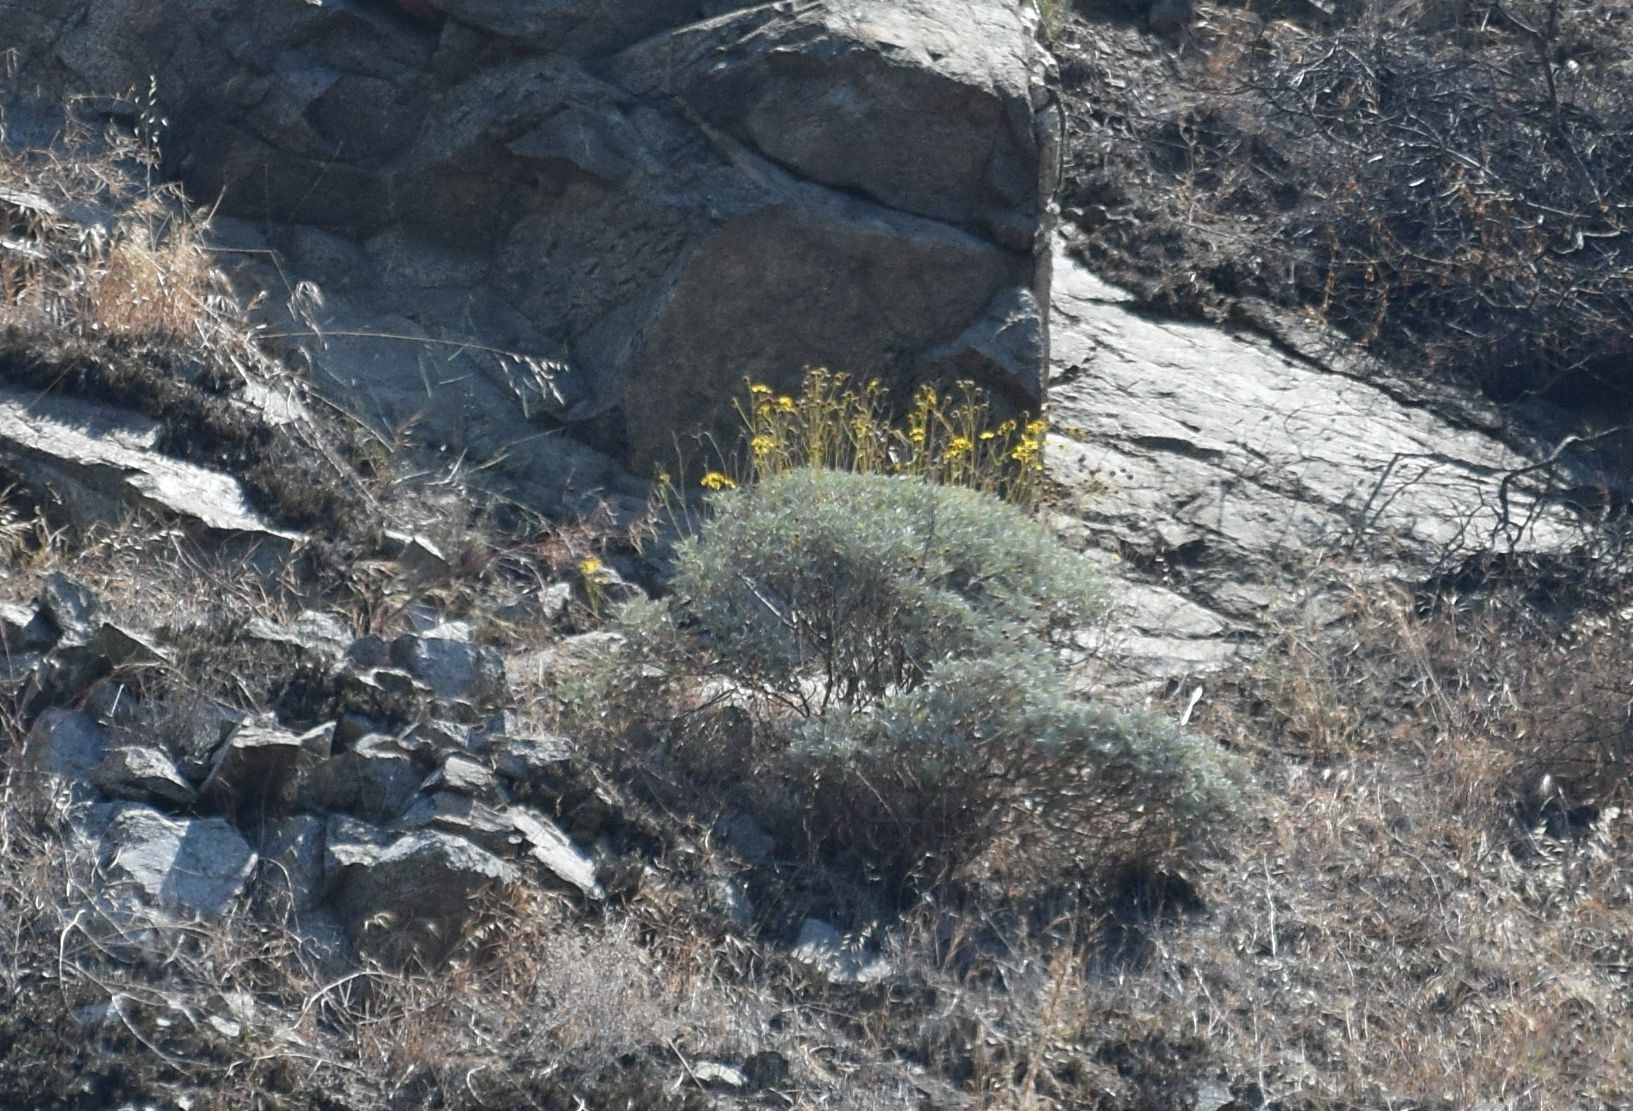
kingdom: Plantae
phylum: Tracheophyta
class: Magnoliopsida
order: Asterales
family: Asteraceae
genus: Encelia
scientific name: Encelia farinosa
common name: Brittlebush
